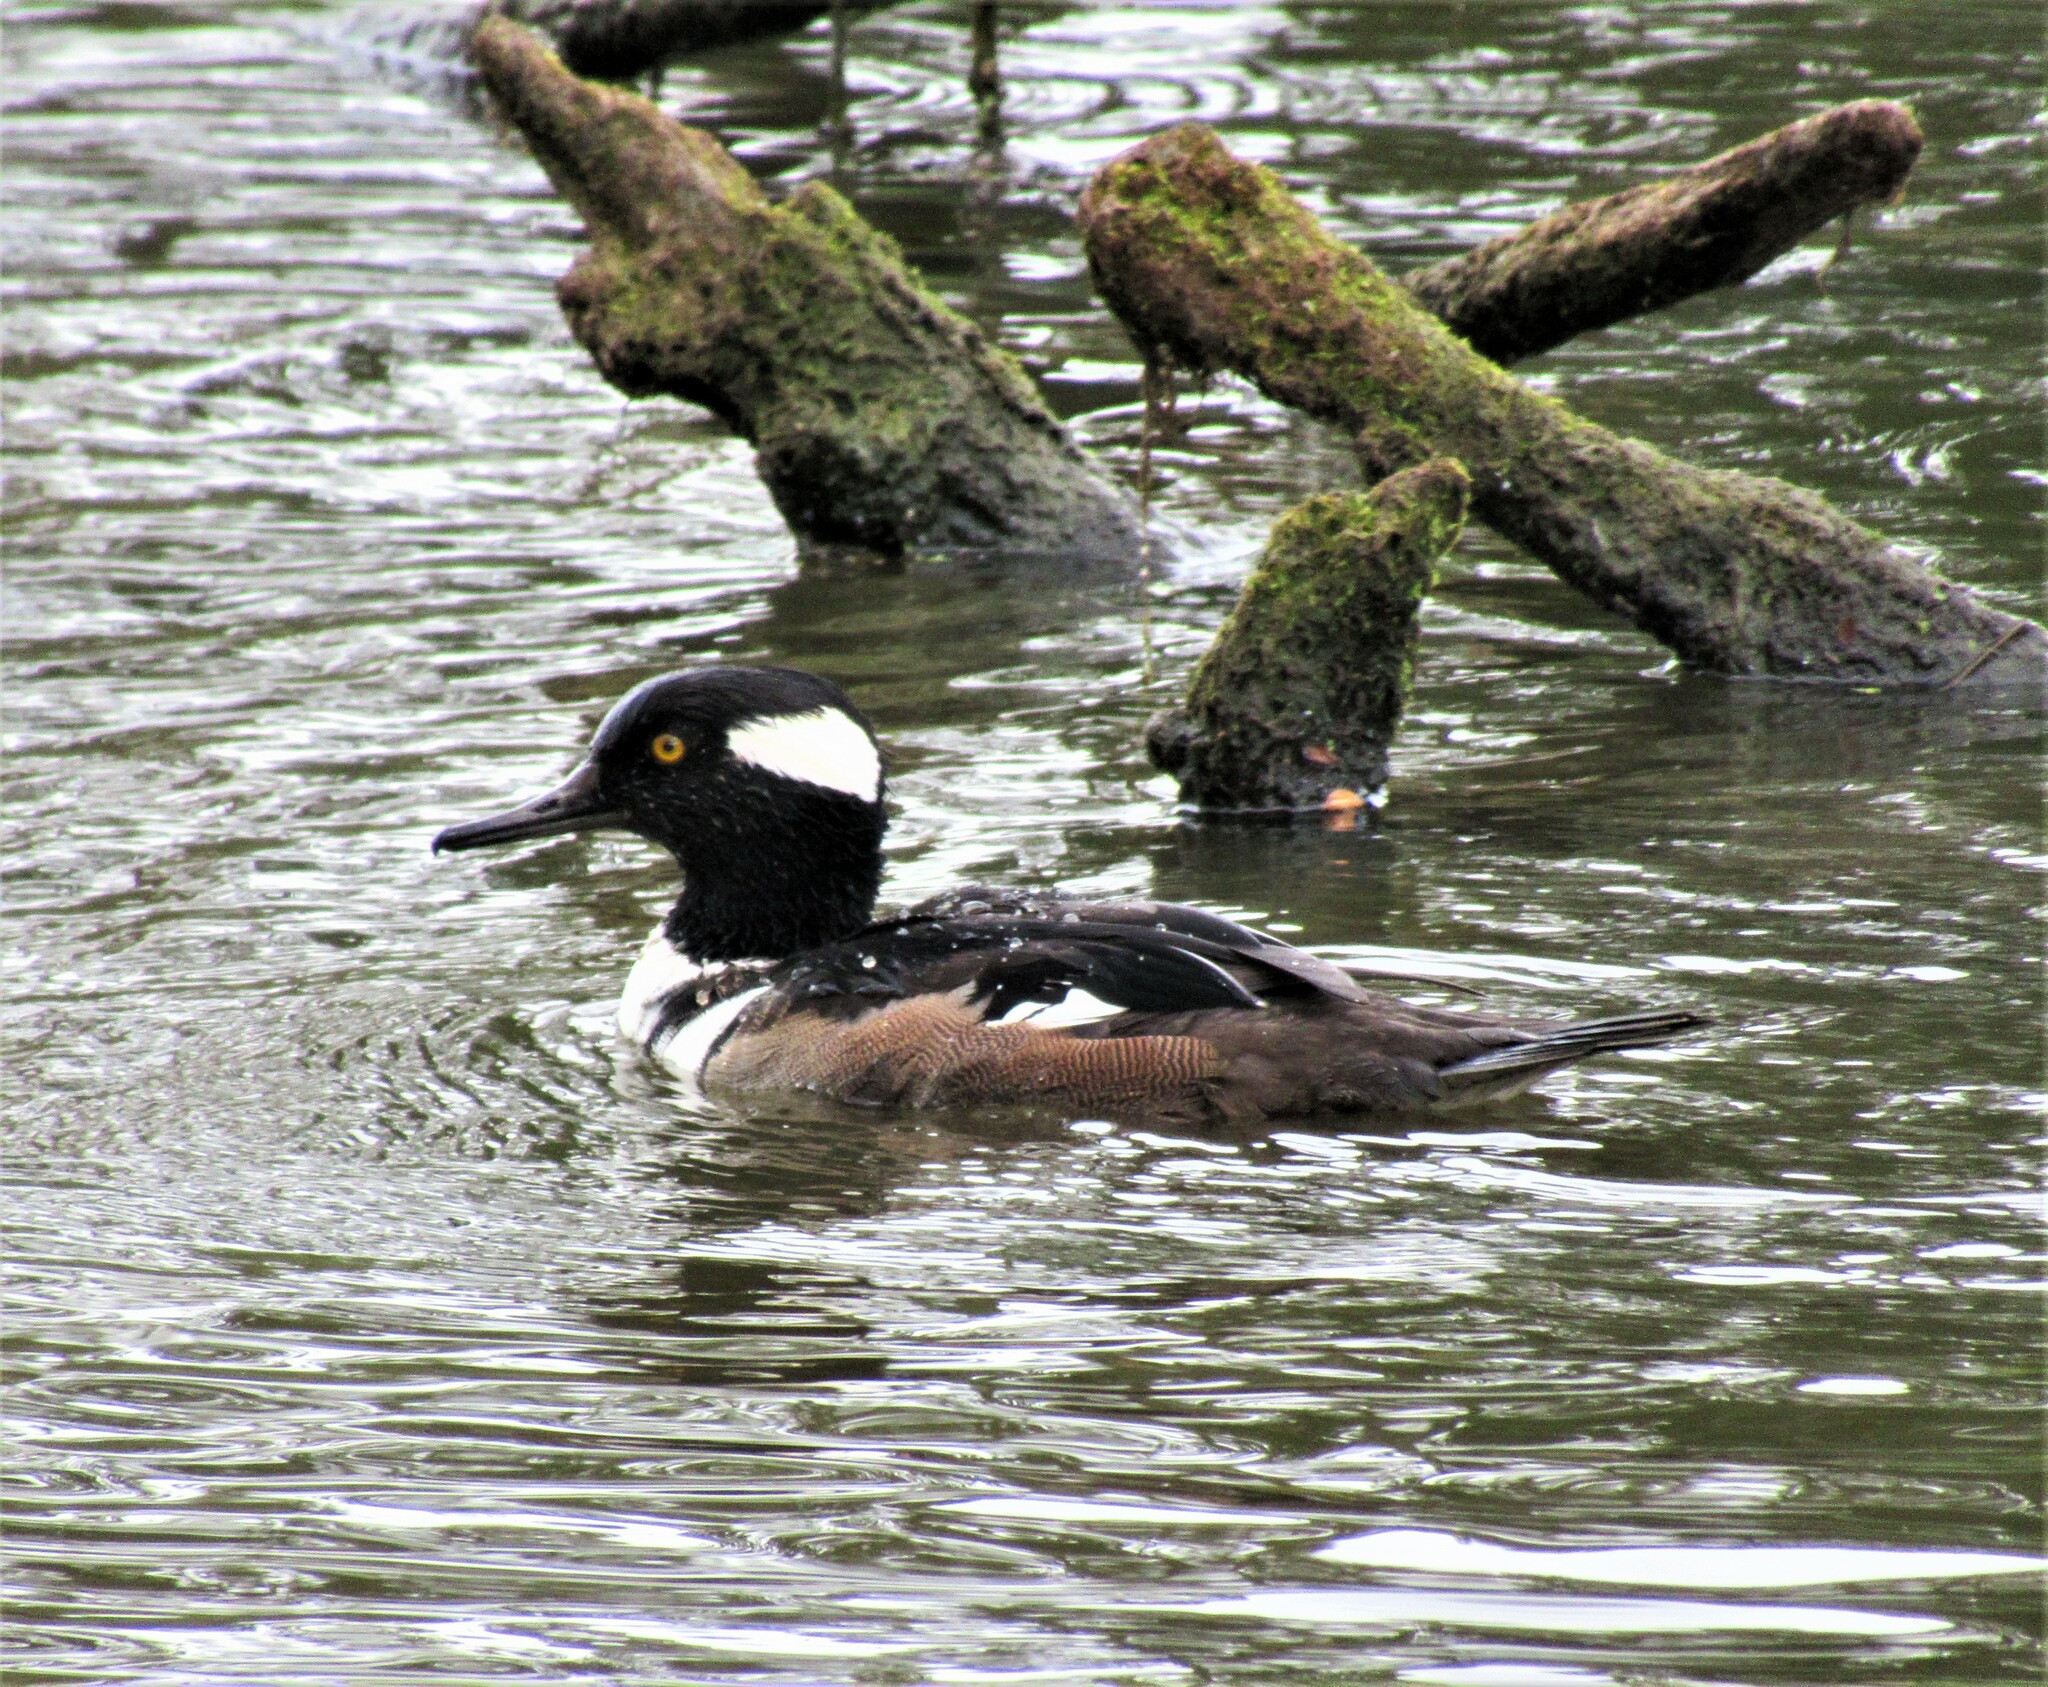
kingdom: Animalia
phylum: Chordata
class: Aves
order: Anseriformes
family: Anatidae
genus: Lophodytes
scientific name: Lophodytes cucullatus
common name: Hooded merganser
